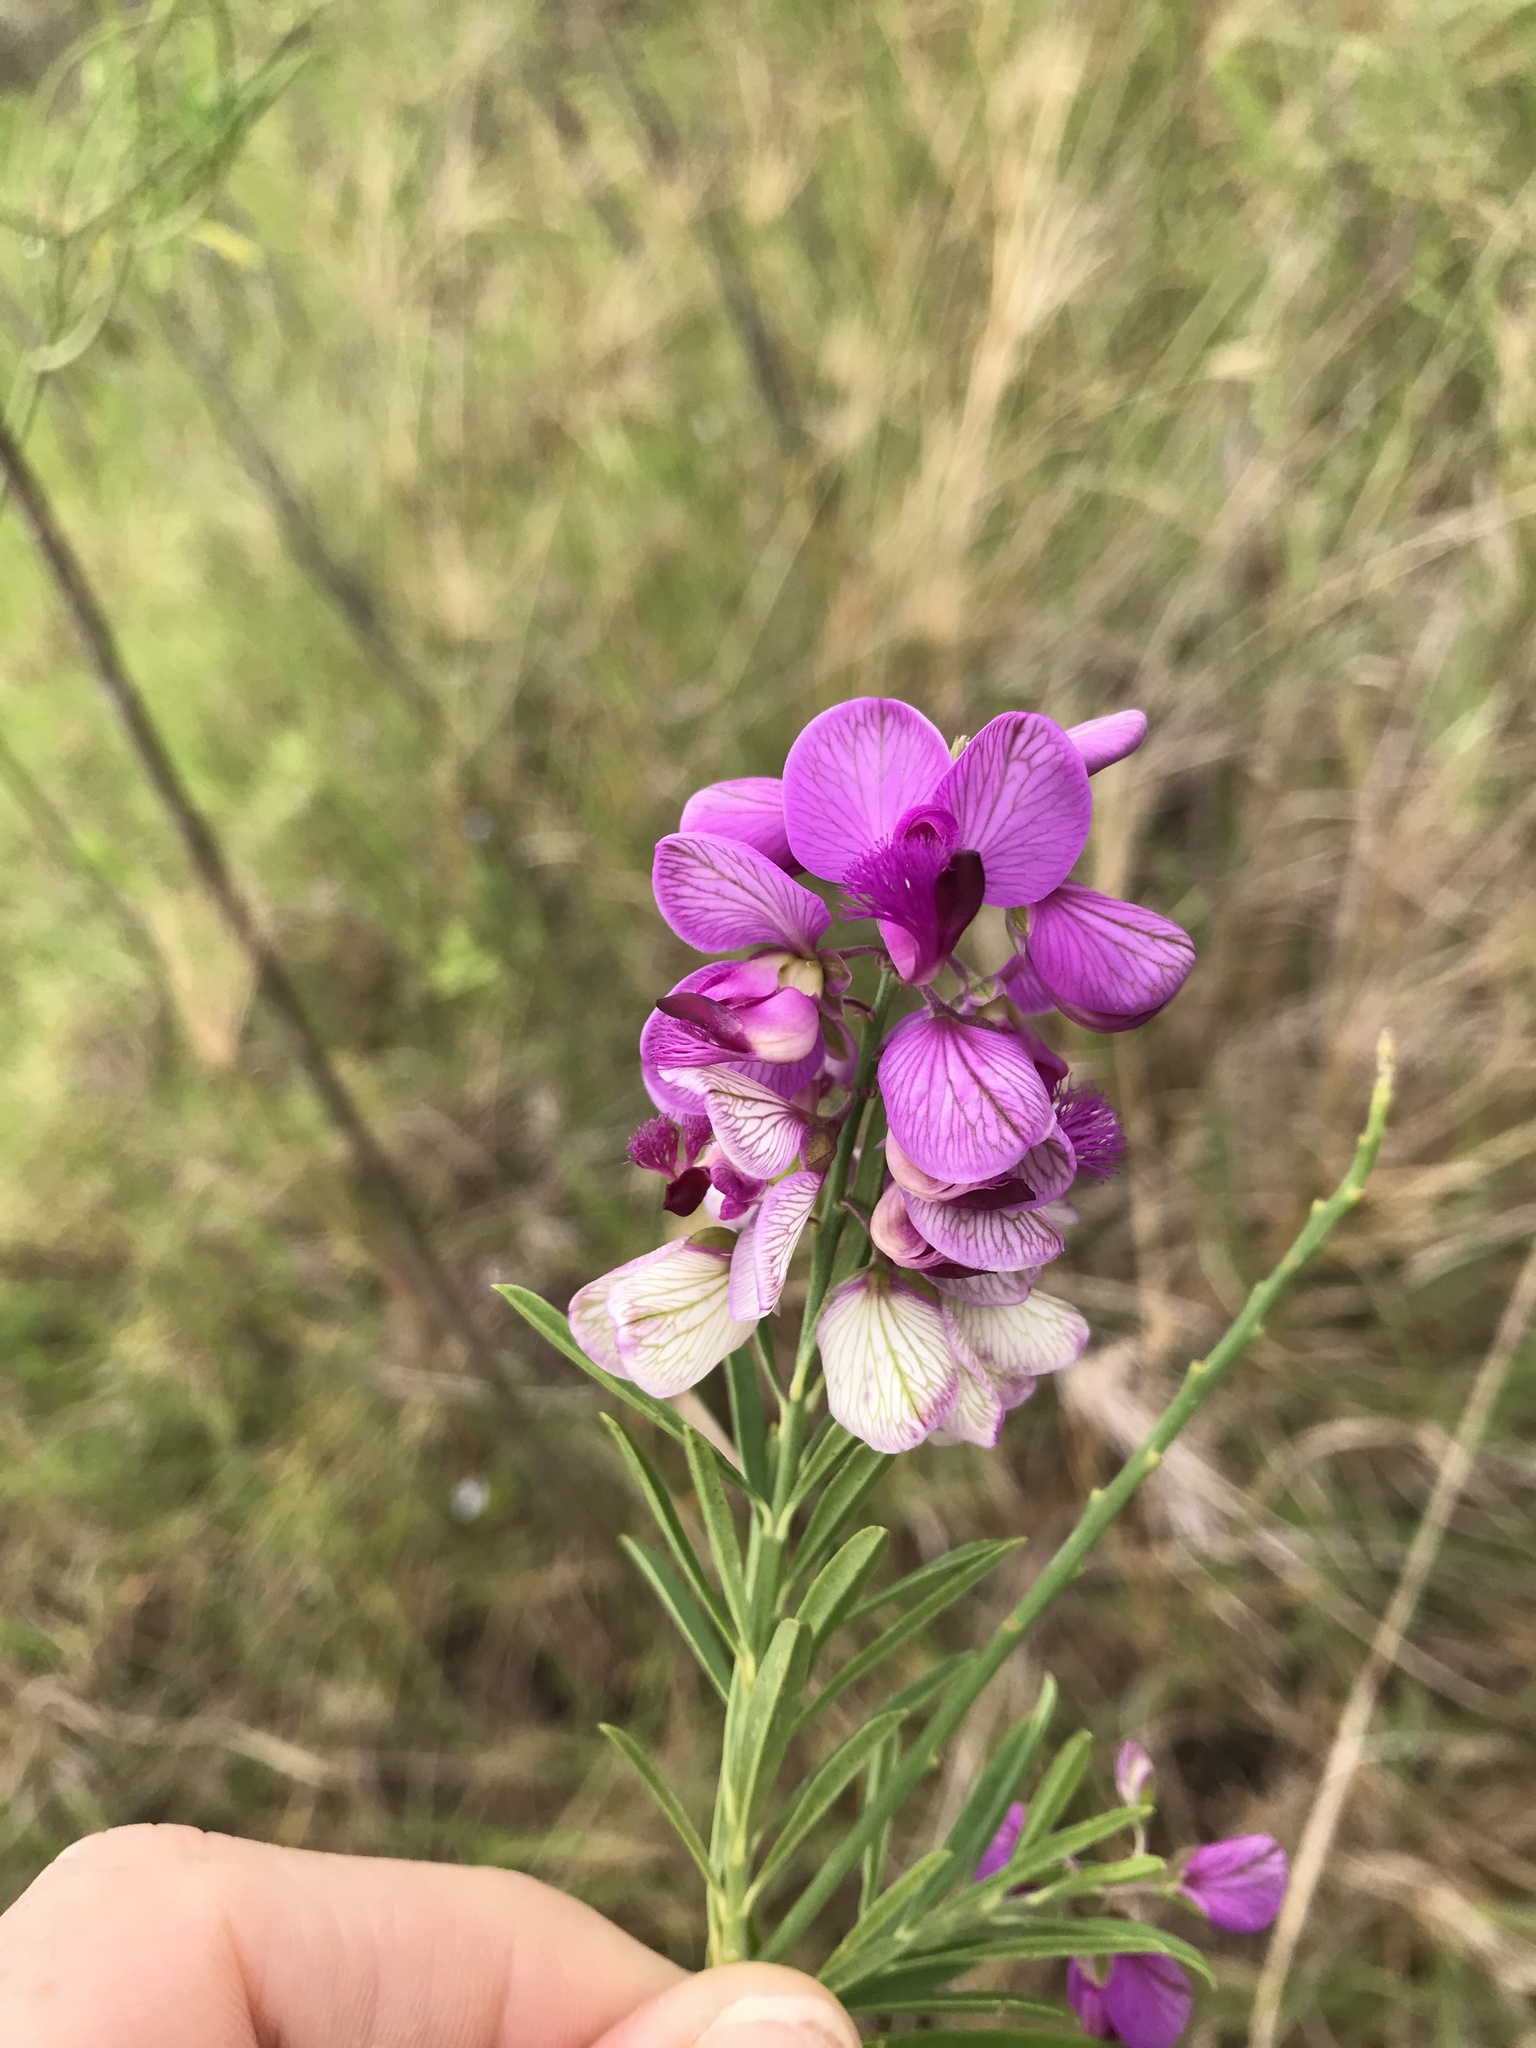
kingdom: Plantae
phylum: Tracheophyta
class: Magnoliopsida
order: Fabales
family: Polygalaceae
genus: Polygala
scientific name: Polygala virgata
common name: Milkwort
